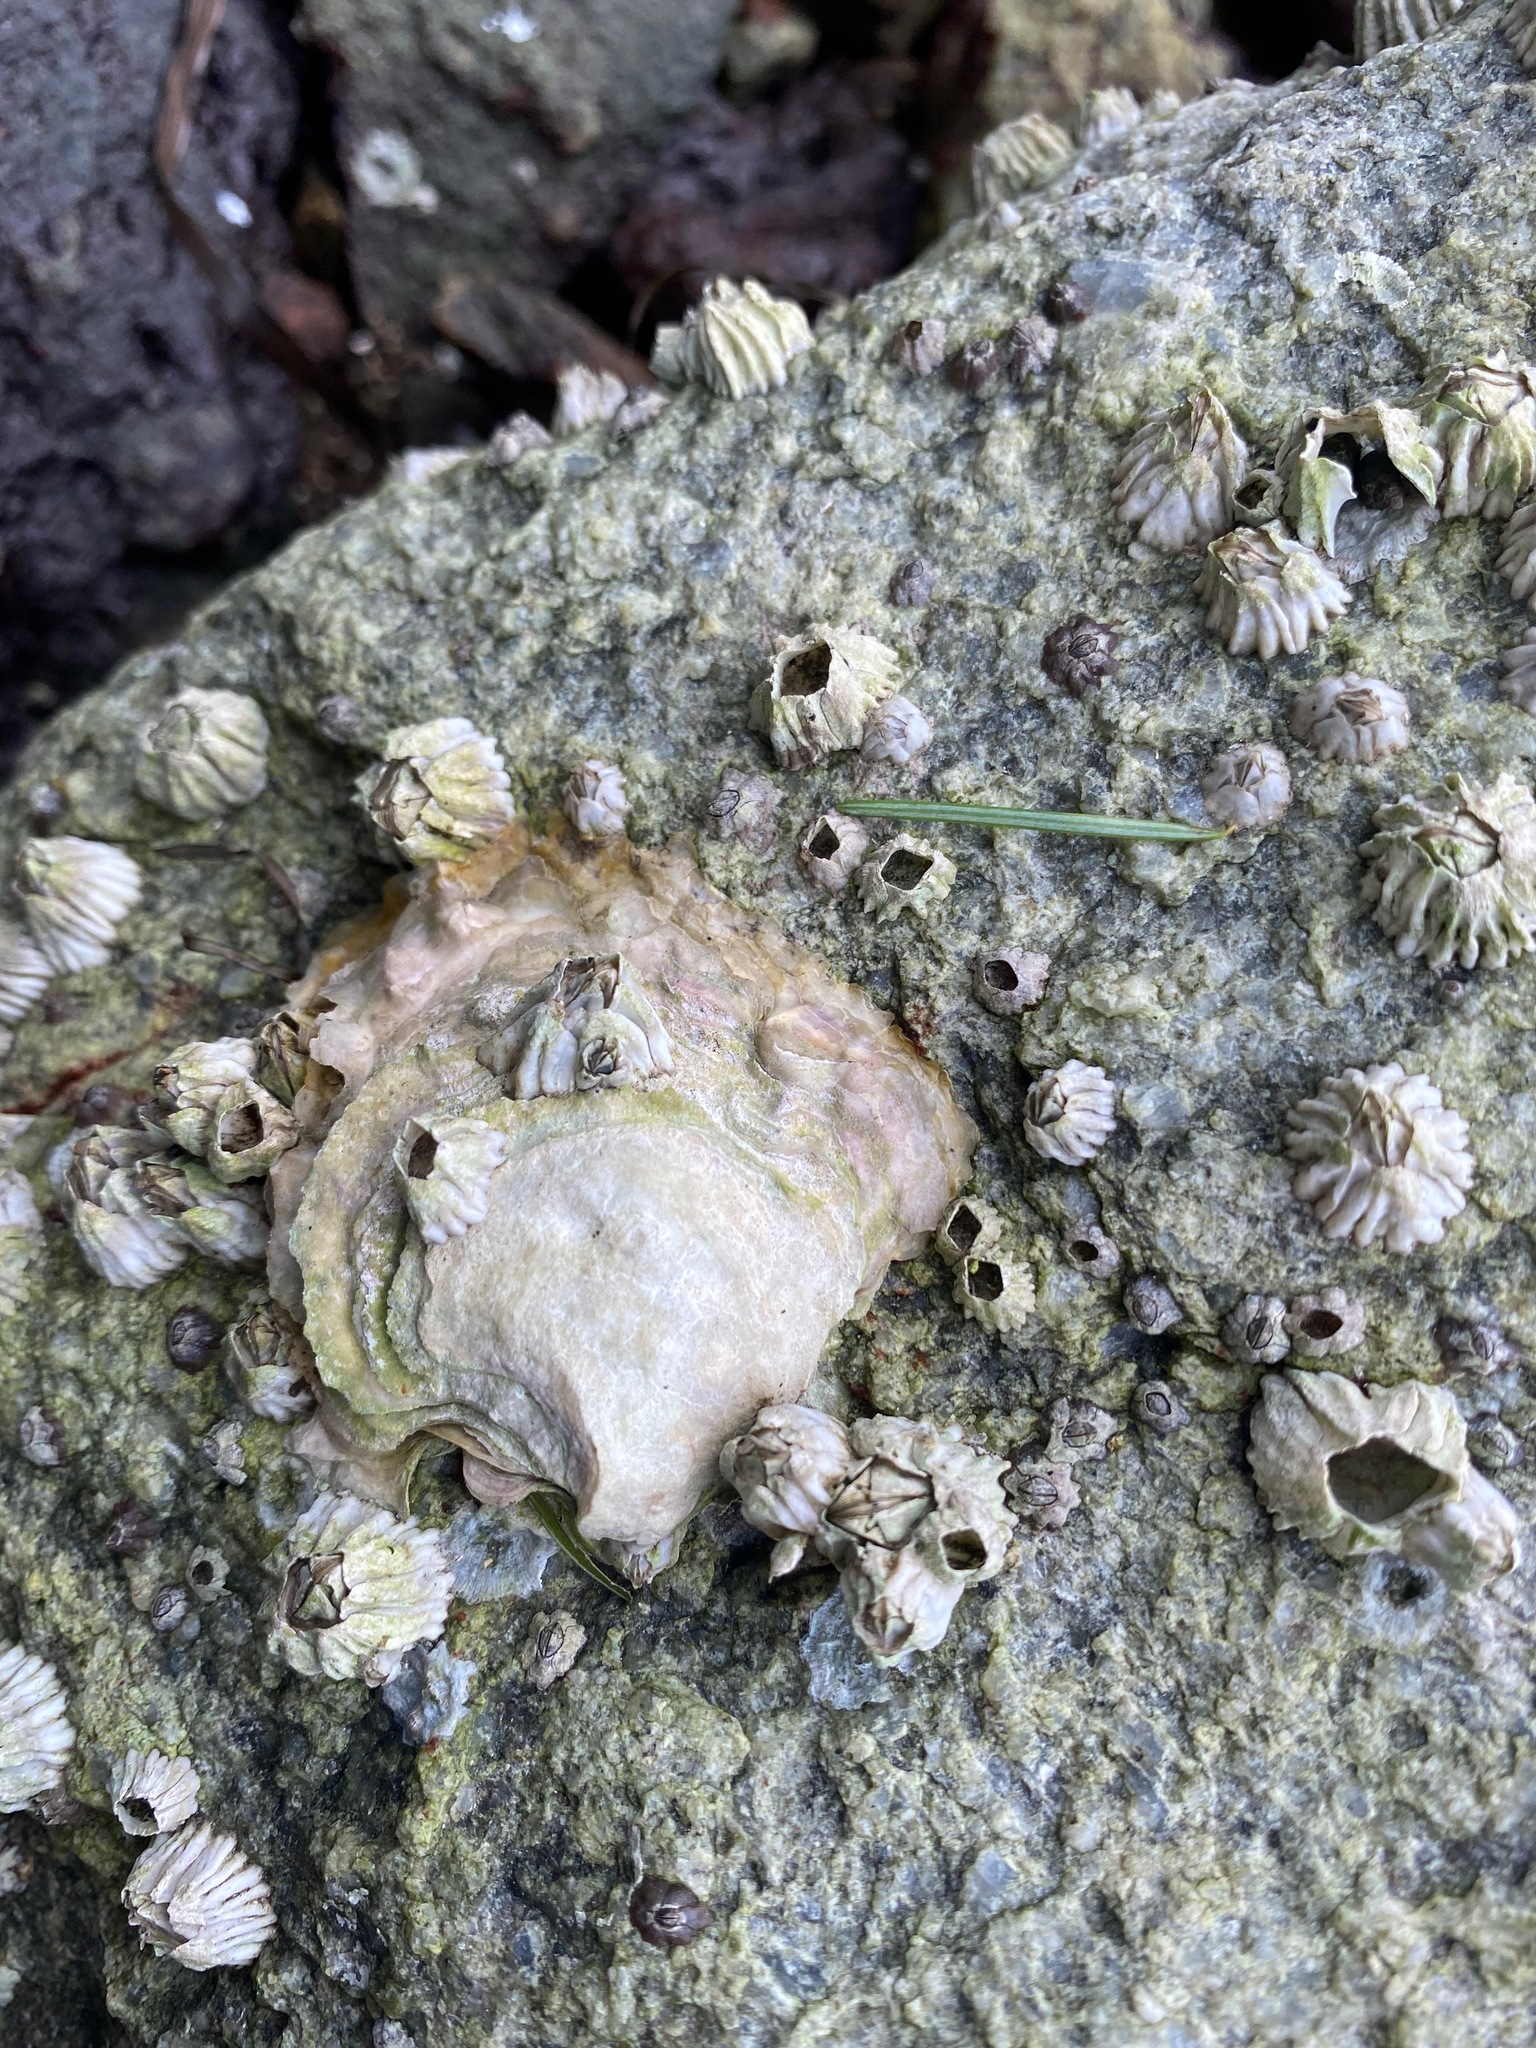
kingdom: Animalia
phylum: Mollusca
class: Bivalvia
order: Ostreida
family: Ostreidae
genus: Magallana
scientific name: Magallana gigas
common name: Pacific oyster
